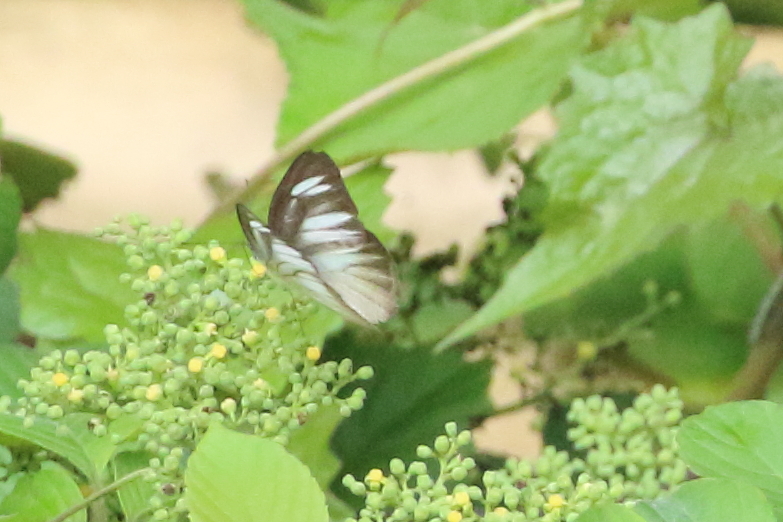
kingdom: Animalia
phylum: Arthropoda
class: Insecta
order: Lepidoptera
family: Pieridae
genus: Appias
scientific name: Appias lyncida
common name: Chocolate albatross
